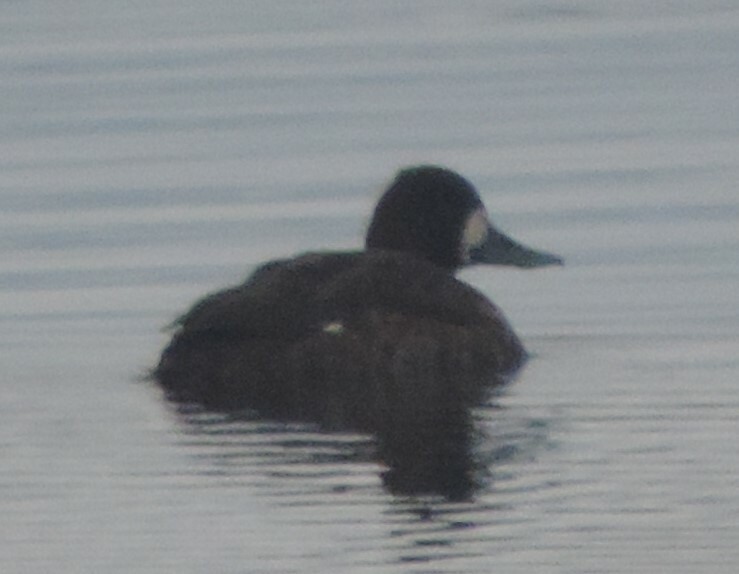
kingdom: Animalia
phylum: Chordata
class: Aves
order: Anseriformes
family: Anatidae
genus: Aythya
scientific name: Aythya affinis
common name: Lesser scaup
